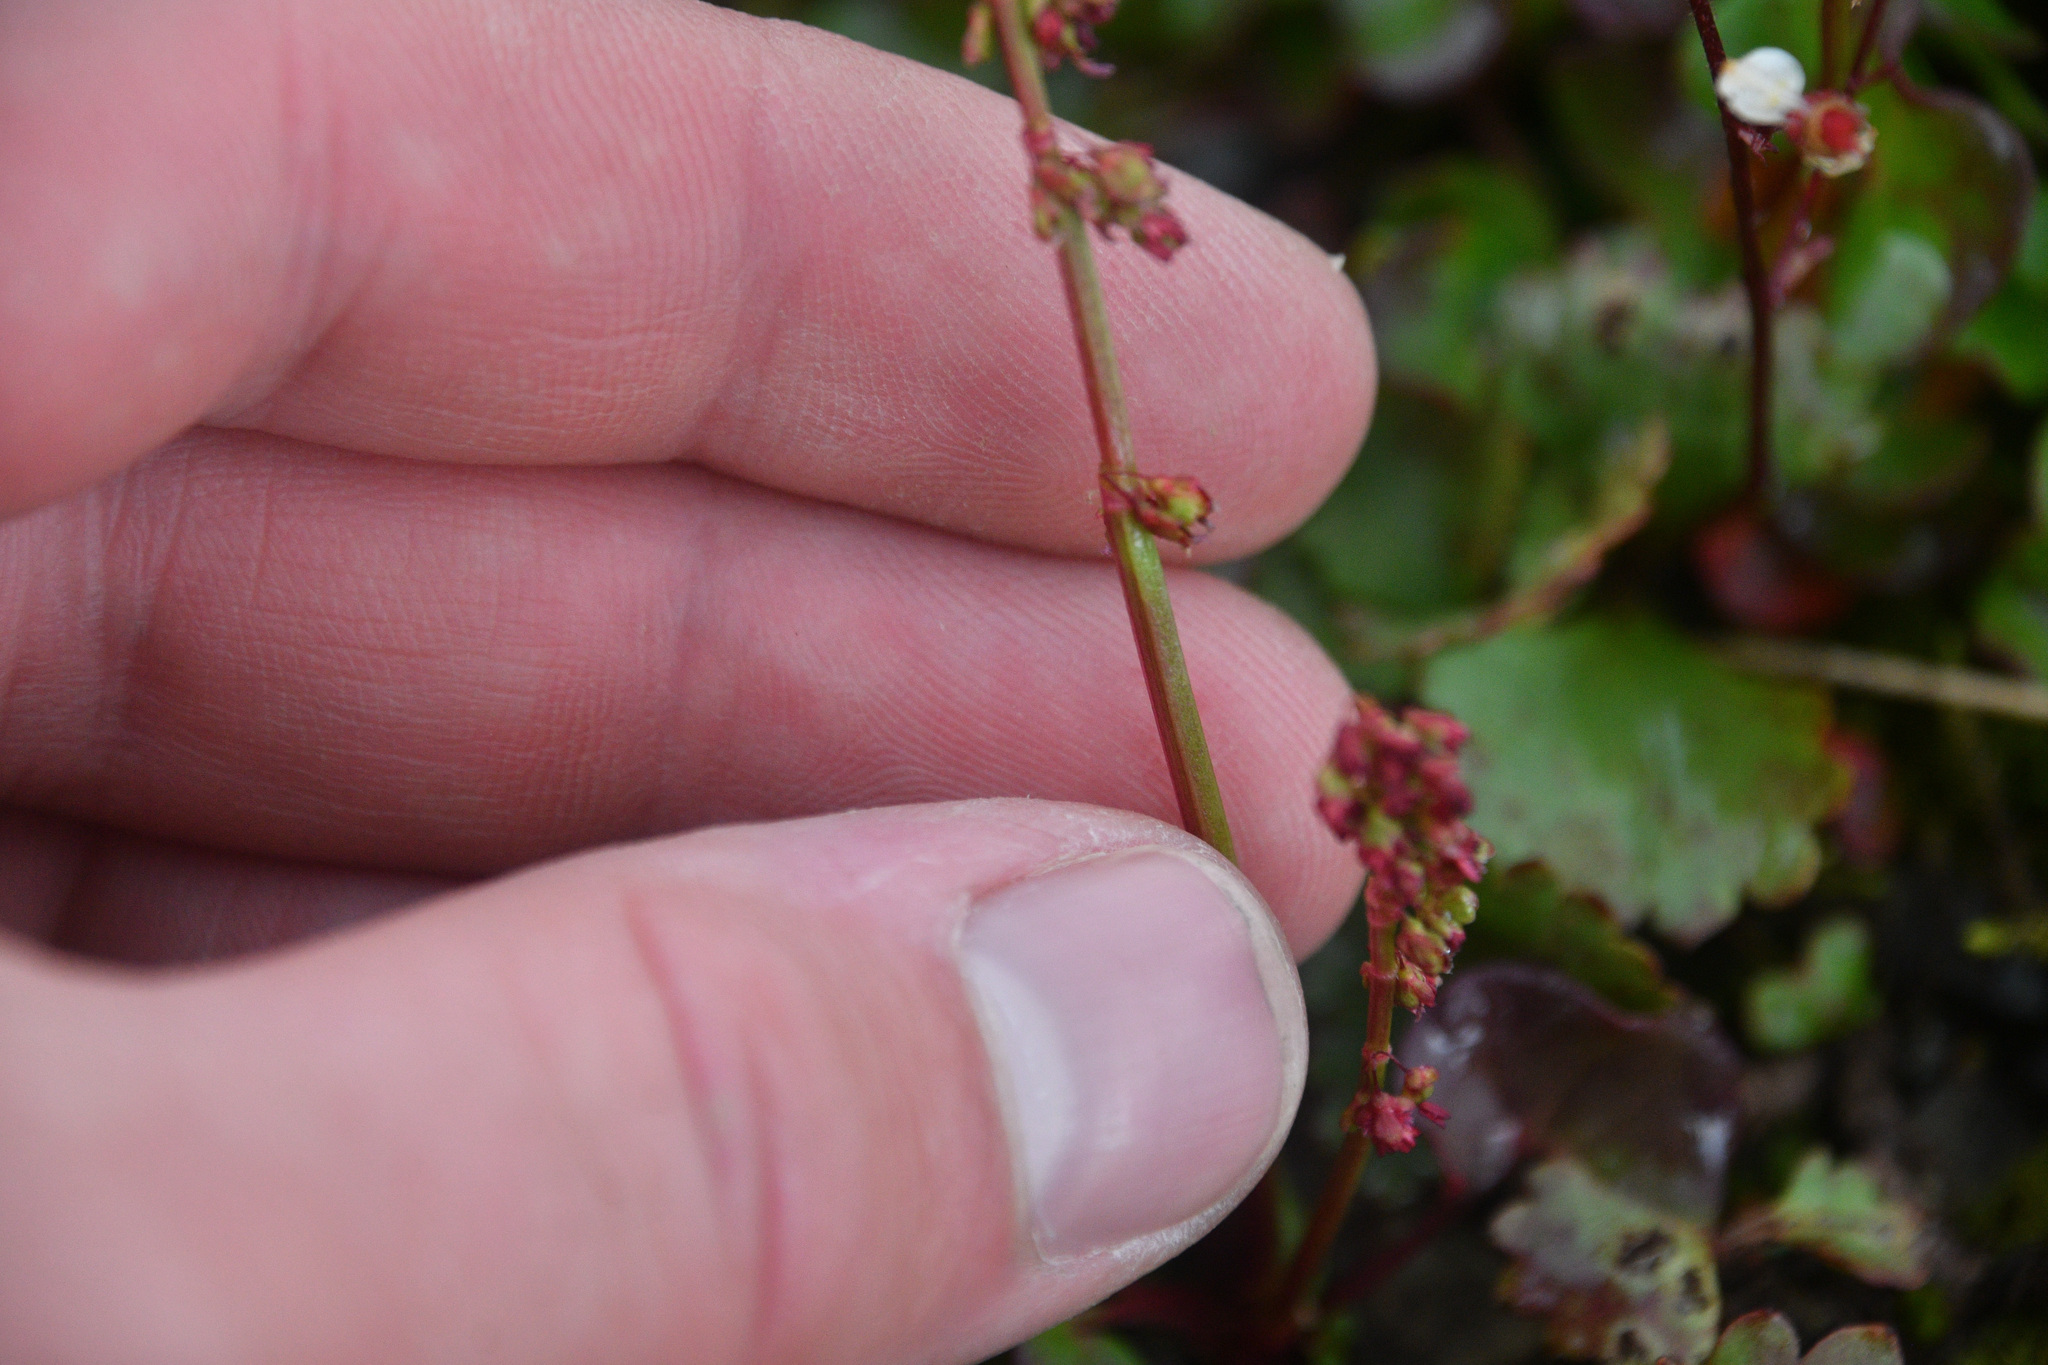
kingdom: Plantae
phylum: Tracheophyta
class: Magnoliopsida
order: Caryophyllales
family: Polygonaceae
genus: Oxyria
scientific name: Oxyria digyna
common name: Alpine mountain-sorrel
